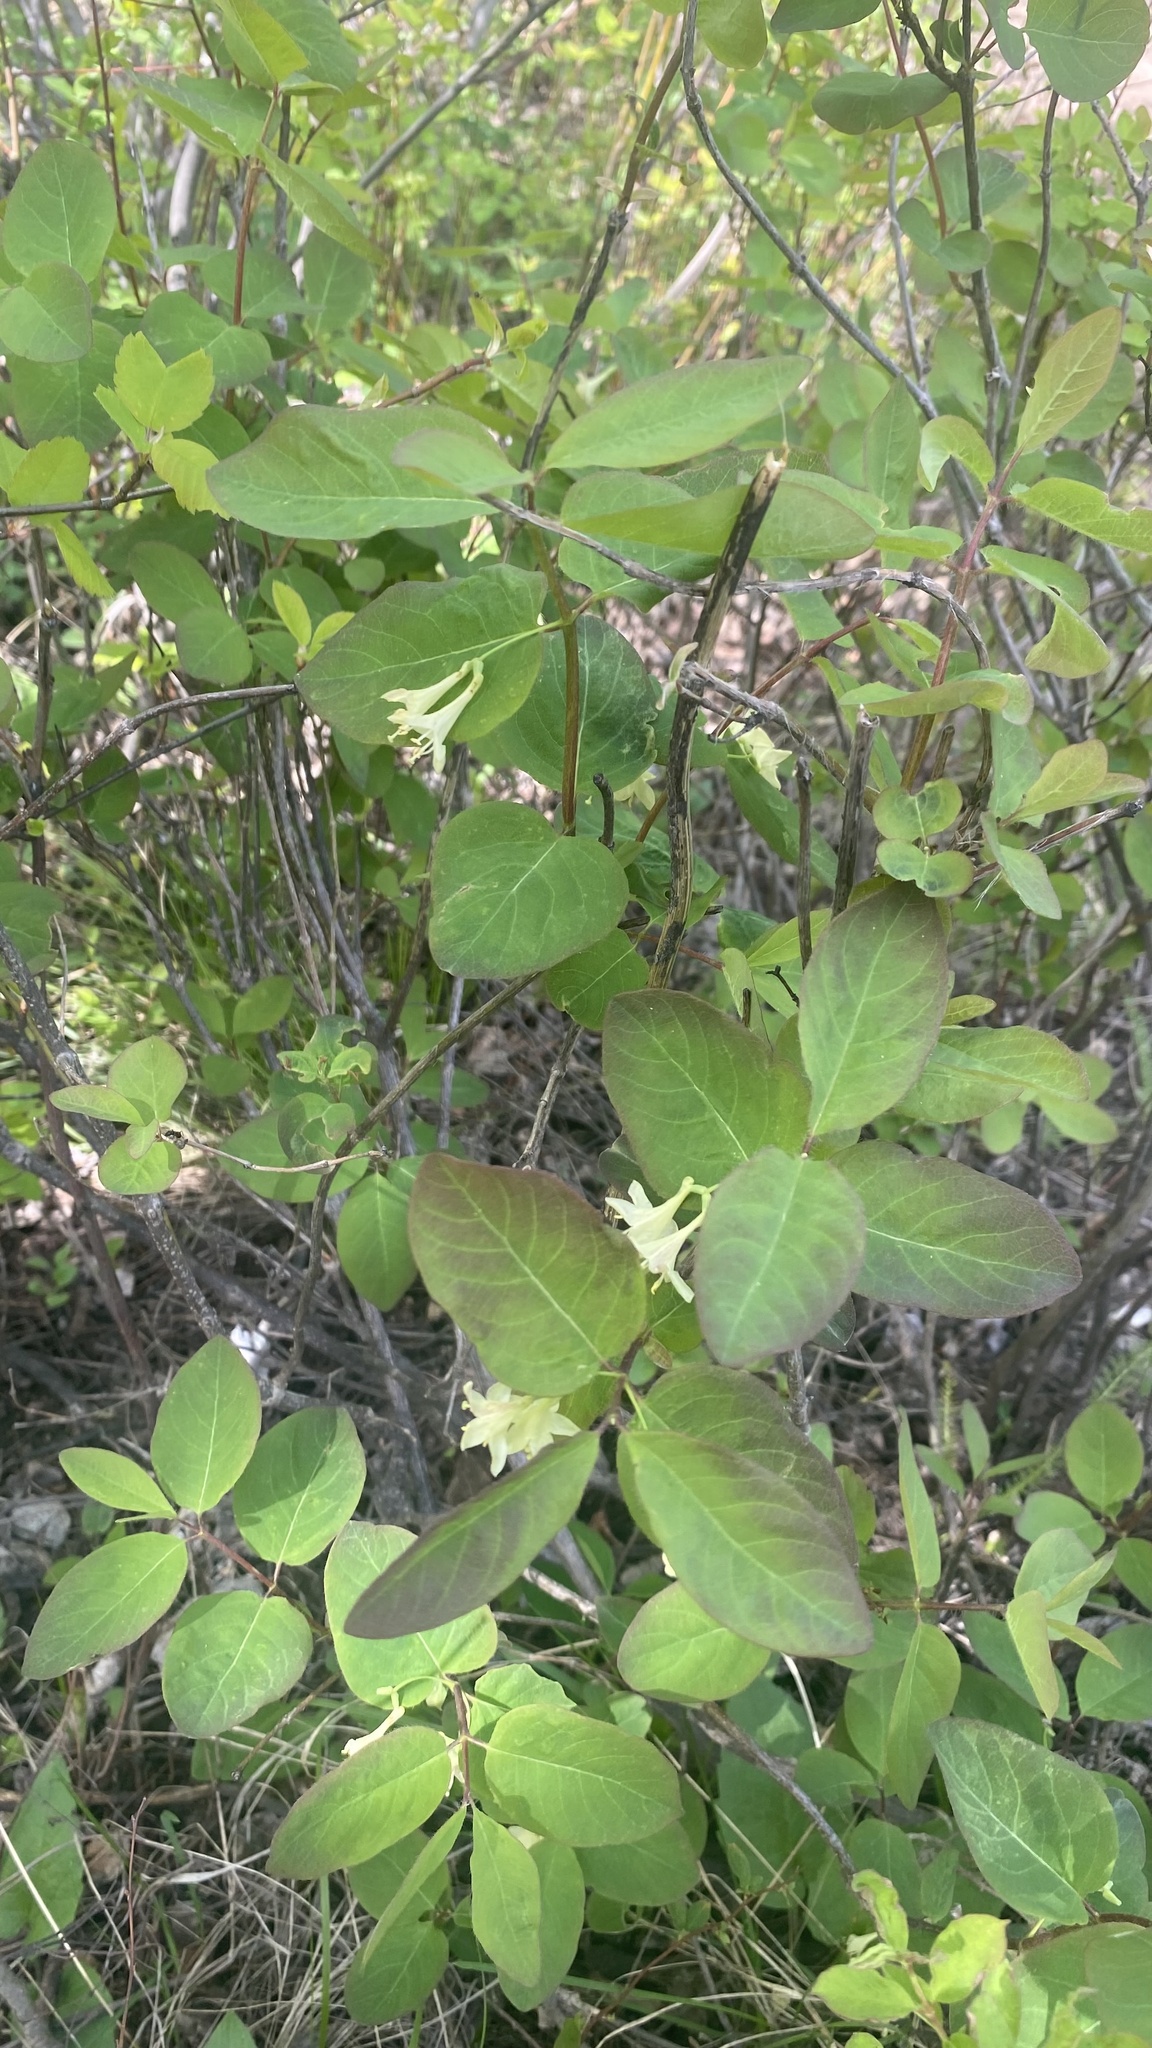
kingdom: Plantae
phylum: Tracheophyta
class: Magnoliopsida
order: Dipsacales
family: Caprifoliaceae
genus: Lonicera
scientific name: Lonicera utahensis
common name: Utah honeysuckle
